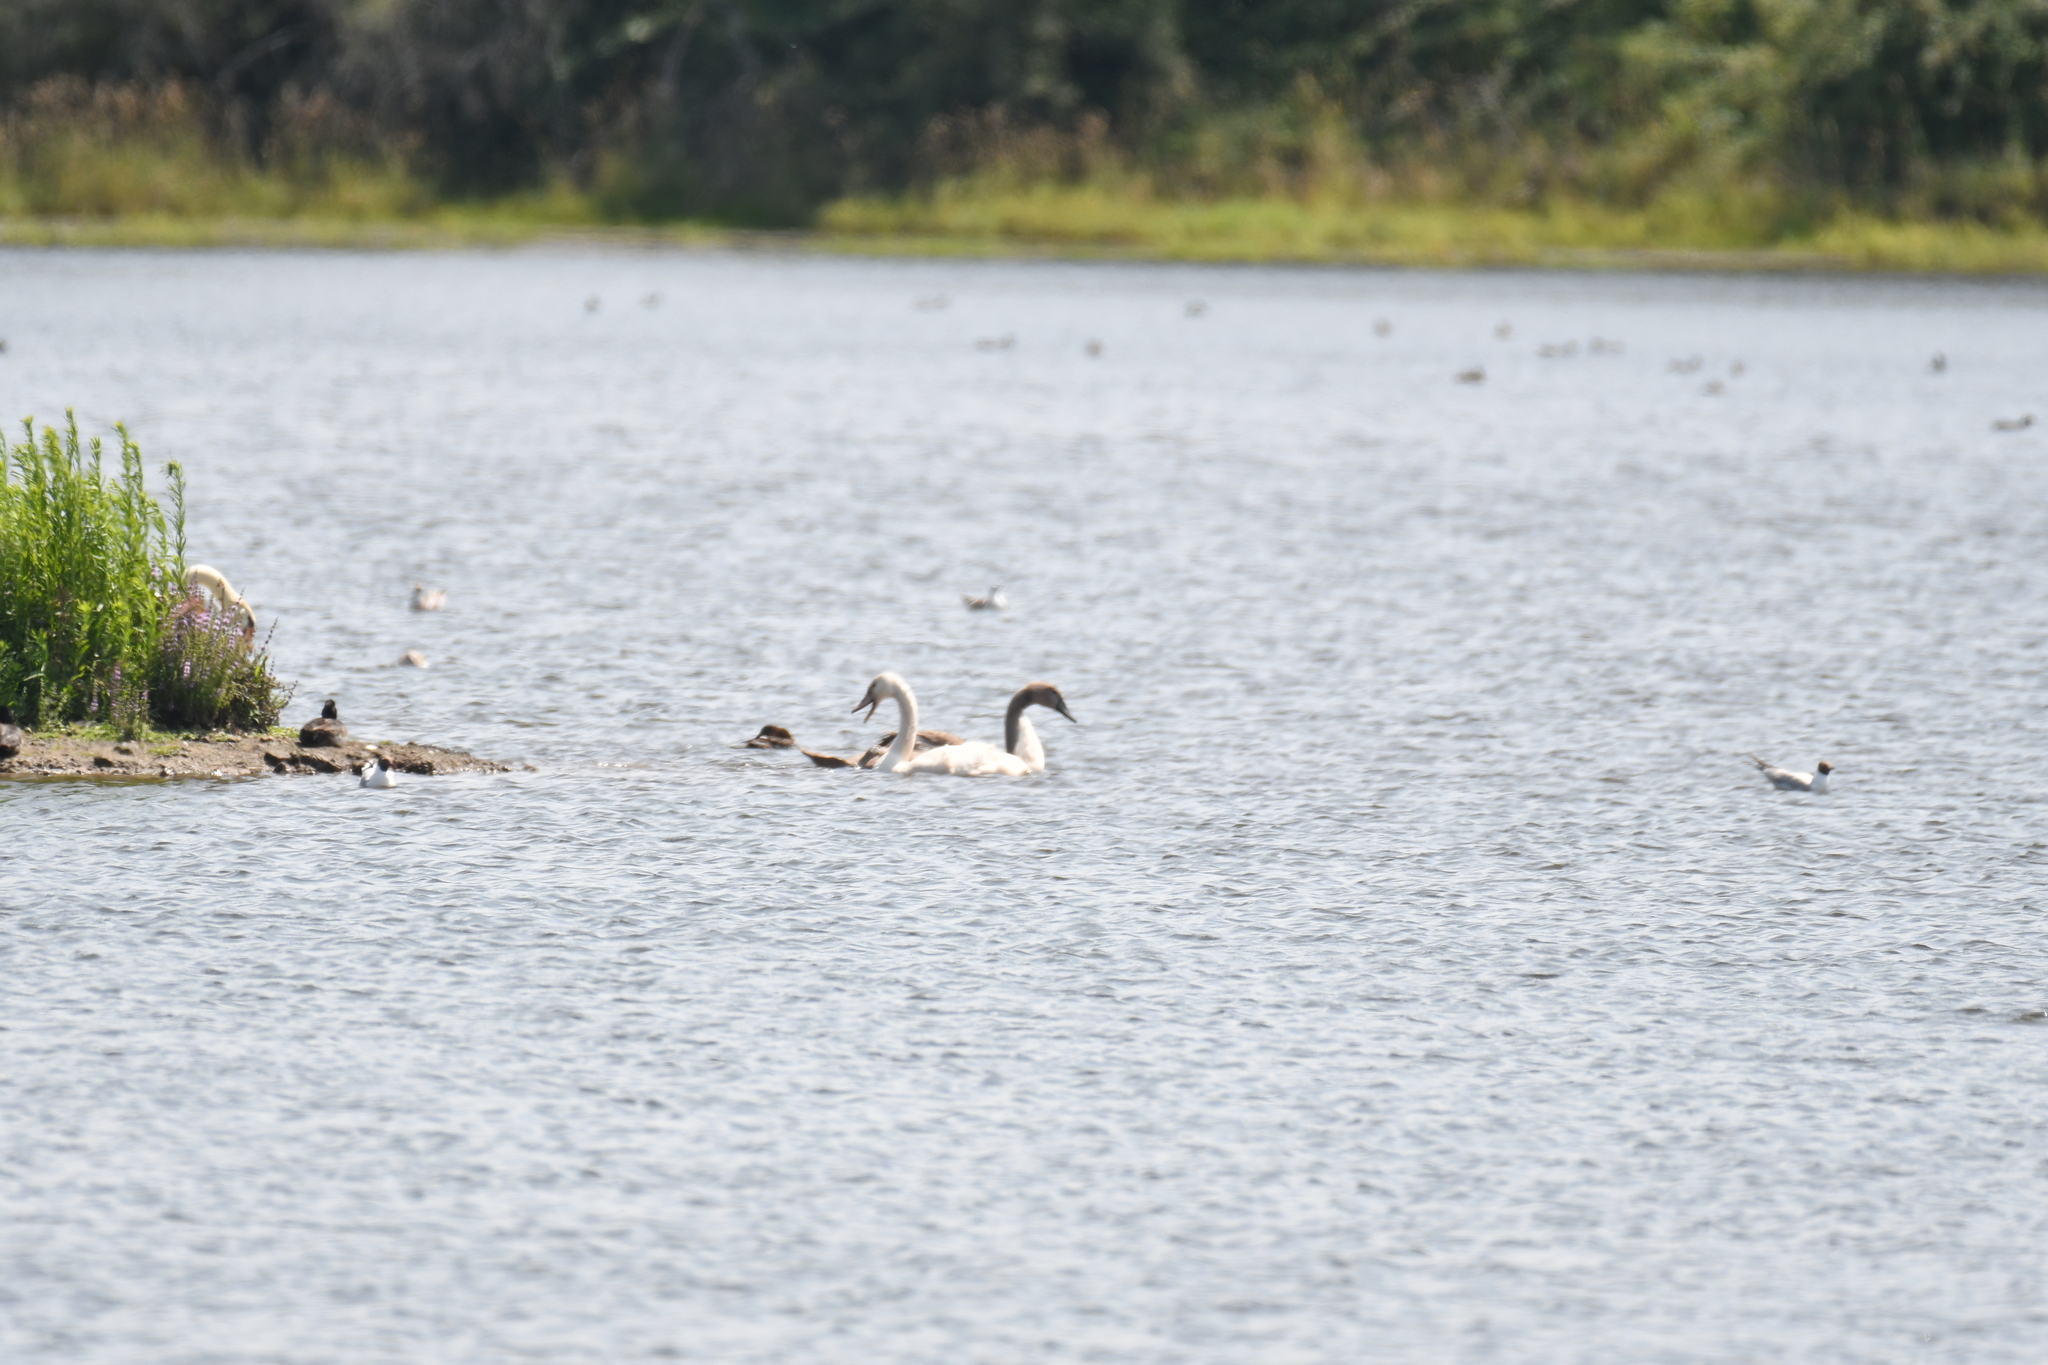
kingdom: Animalia
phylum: Chordata
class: Aves
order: Anseriformes
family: Anatidae
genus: Cygnus
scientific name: Cygnus olor
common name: Mute swan
